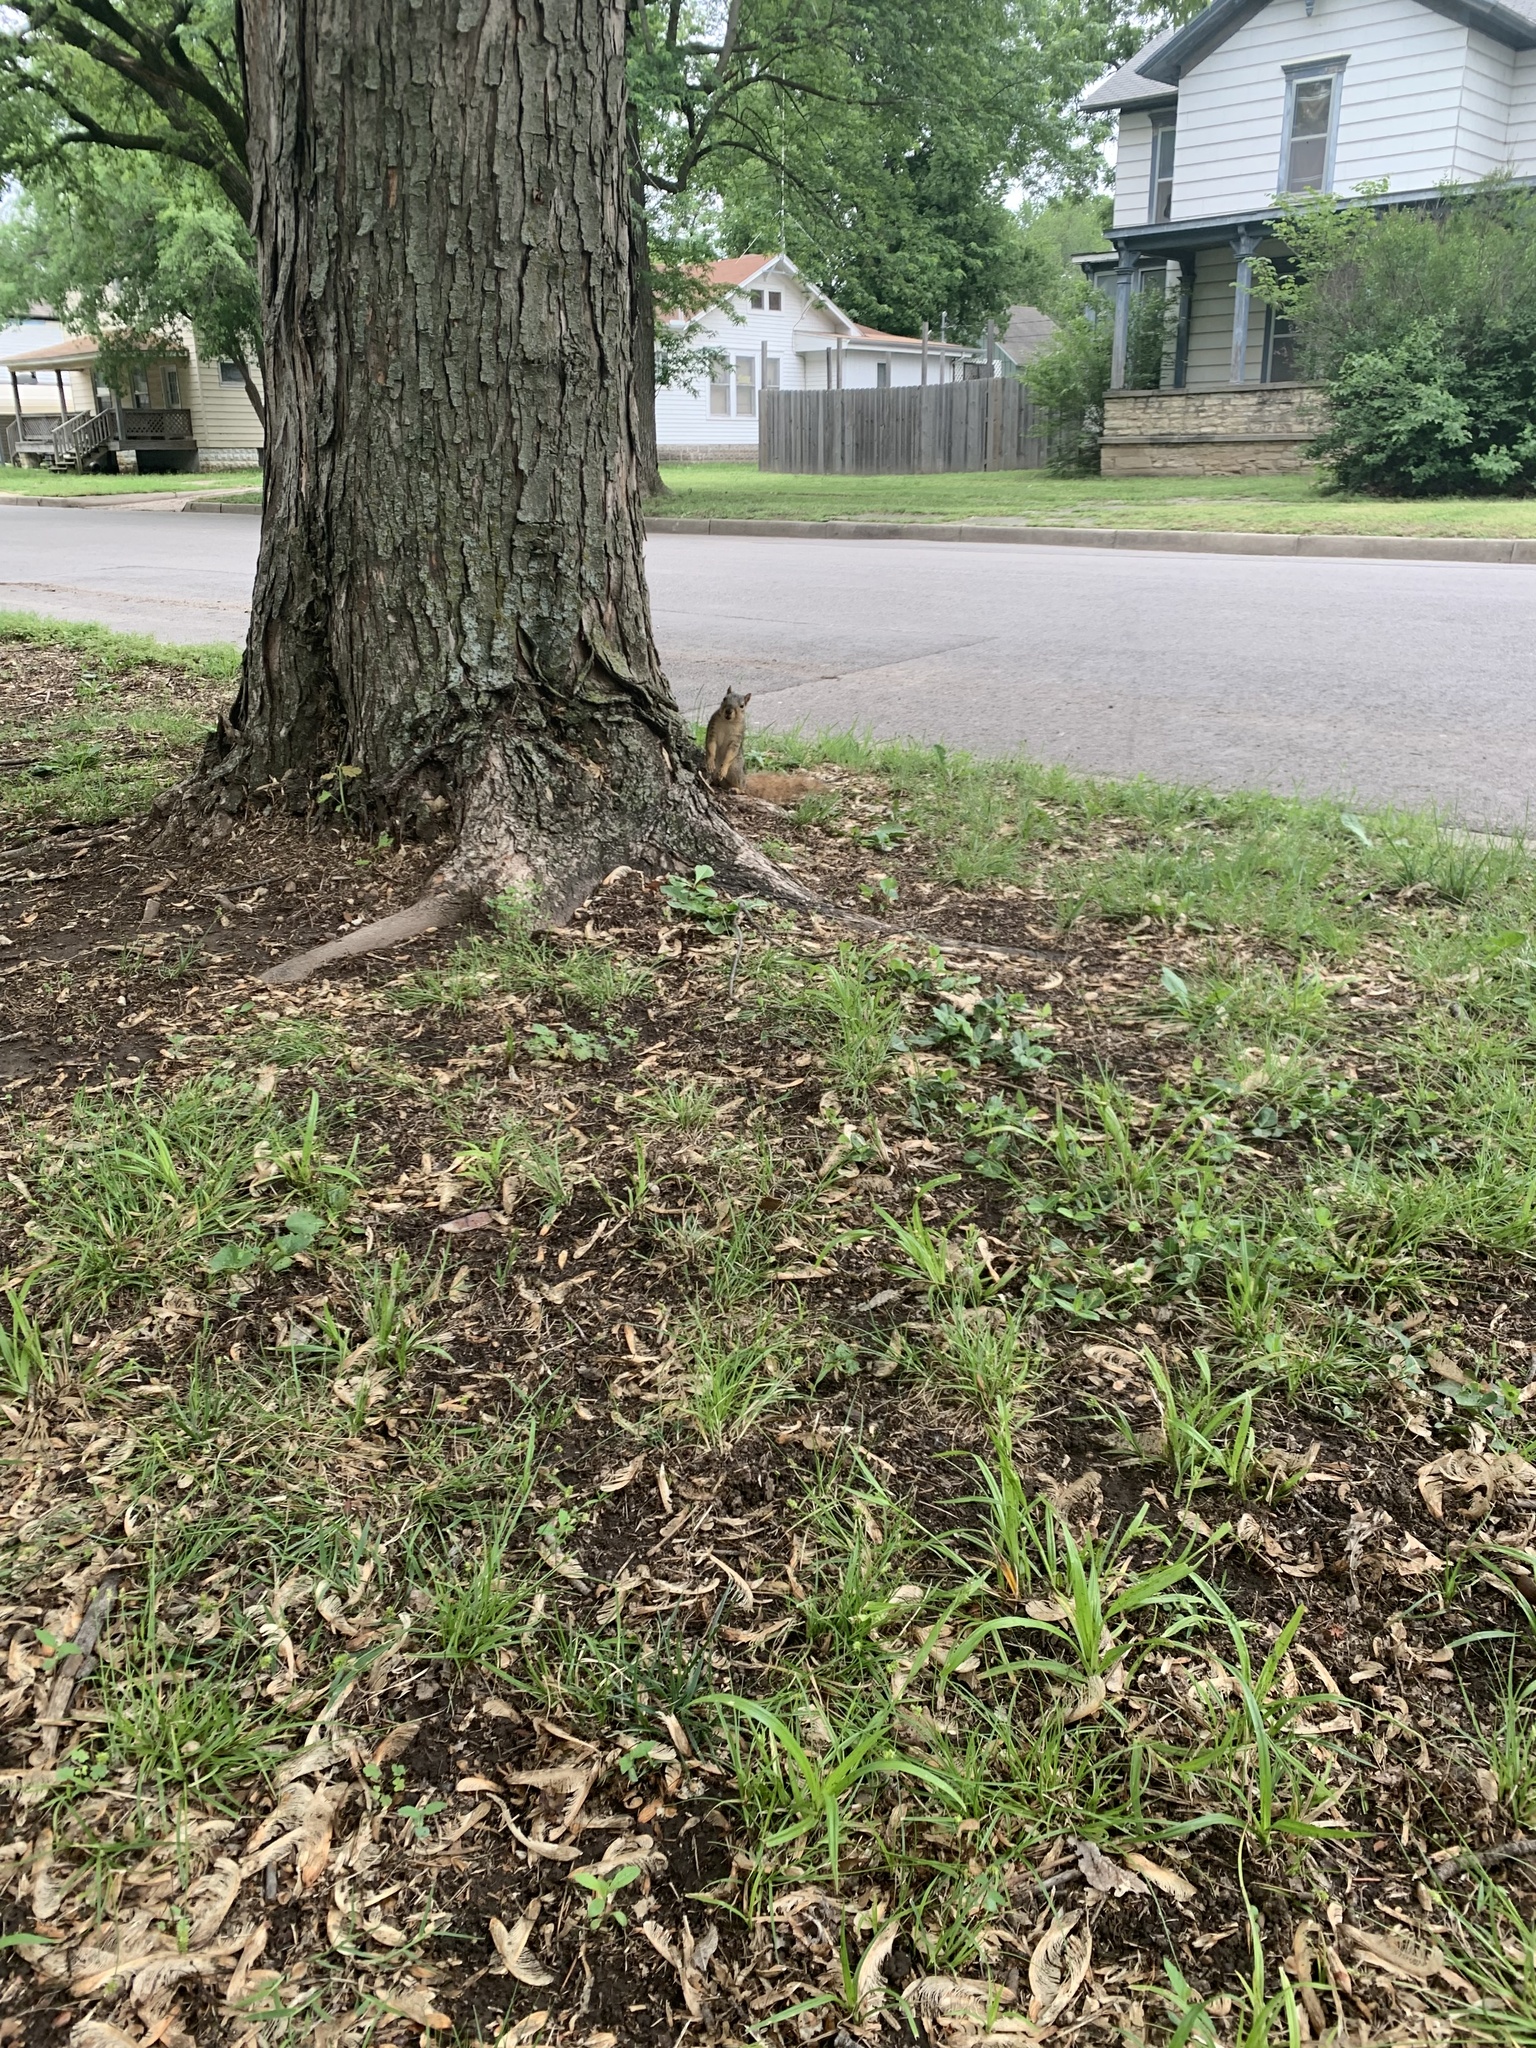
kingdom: Animalia
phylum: Chordata
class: Mammalia
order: Rodentia
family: Sciuridae
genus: Sciurus
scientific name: Sciurus niger
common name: Fox squirrel
